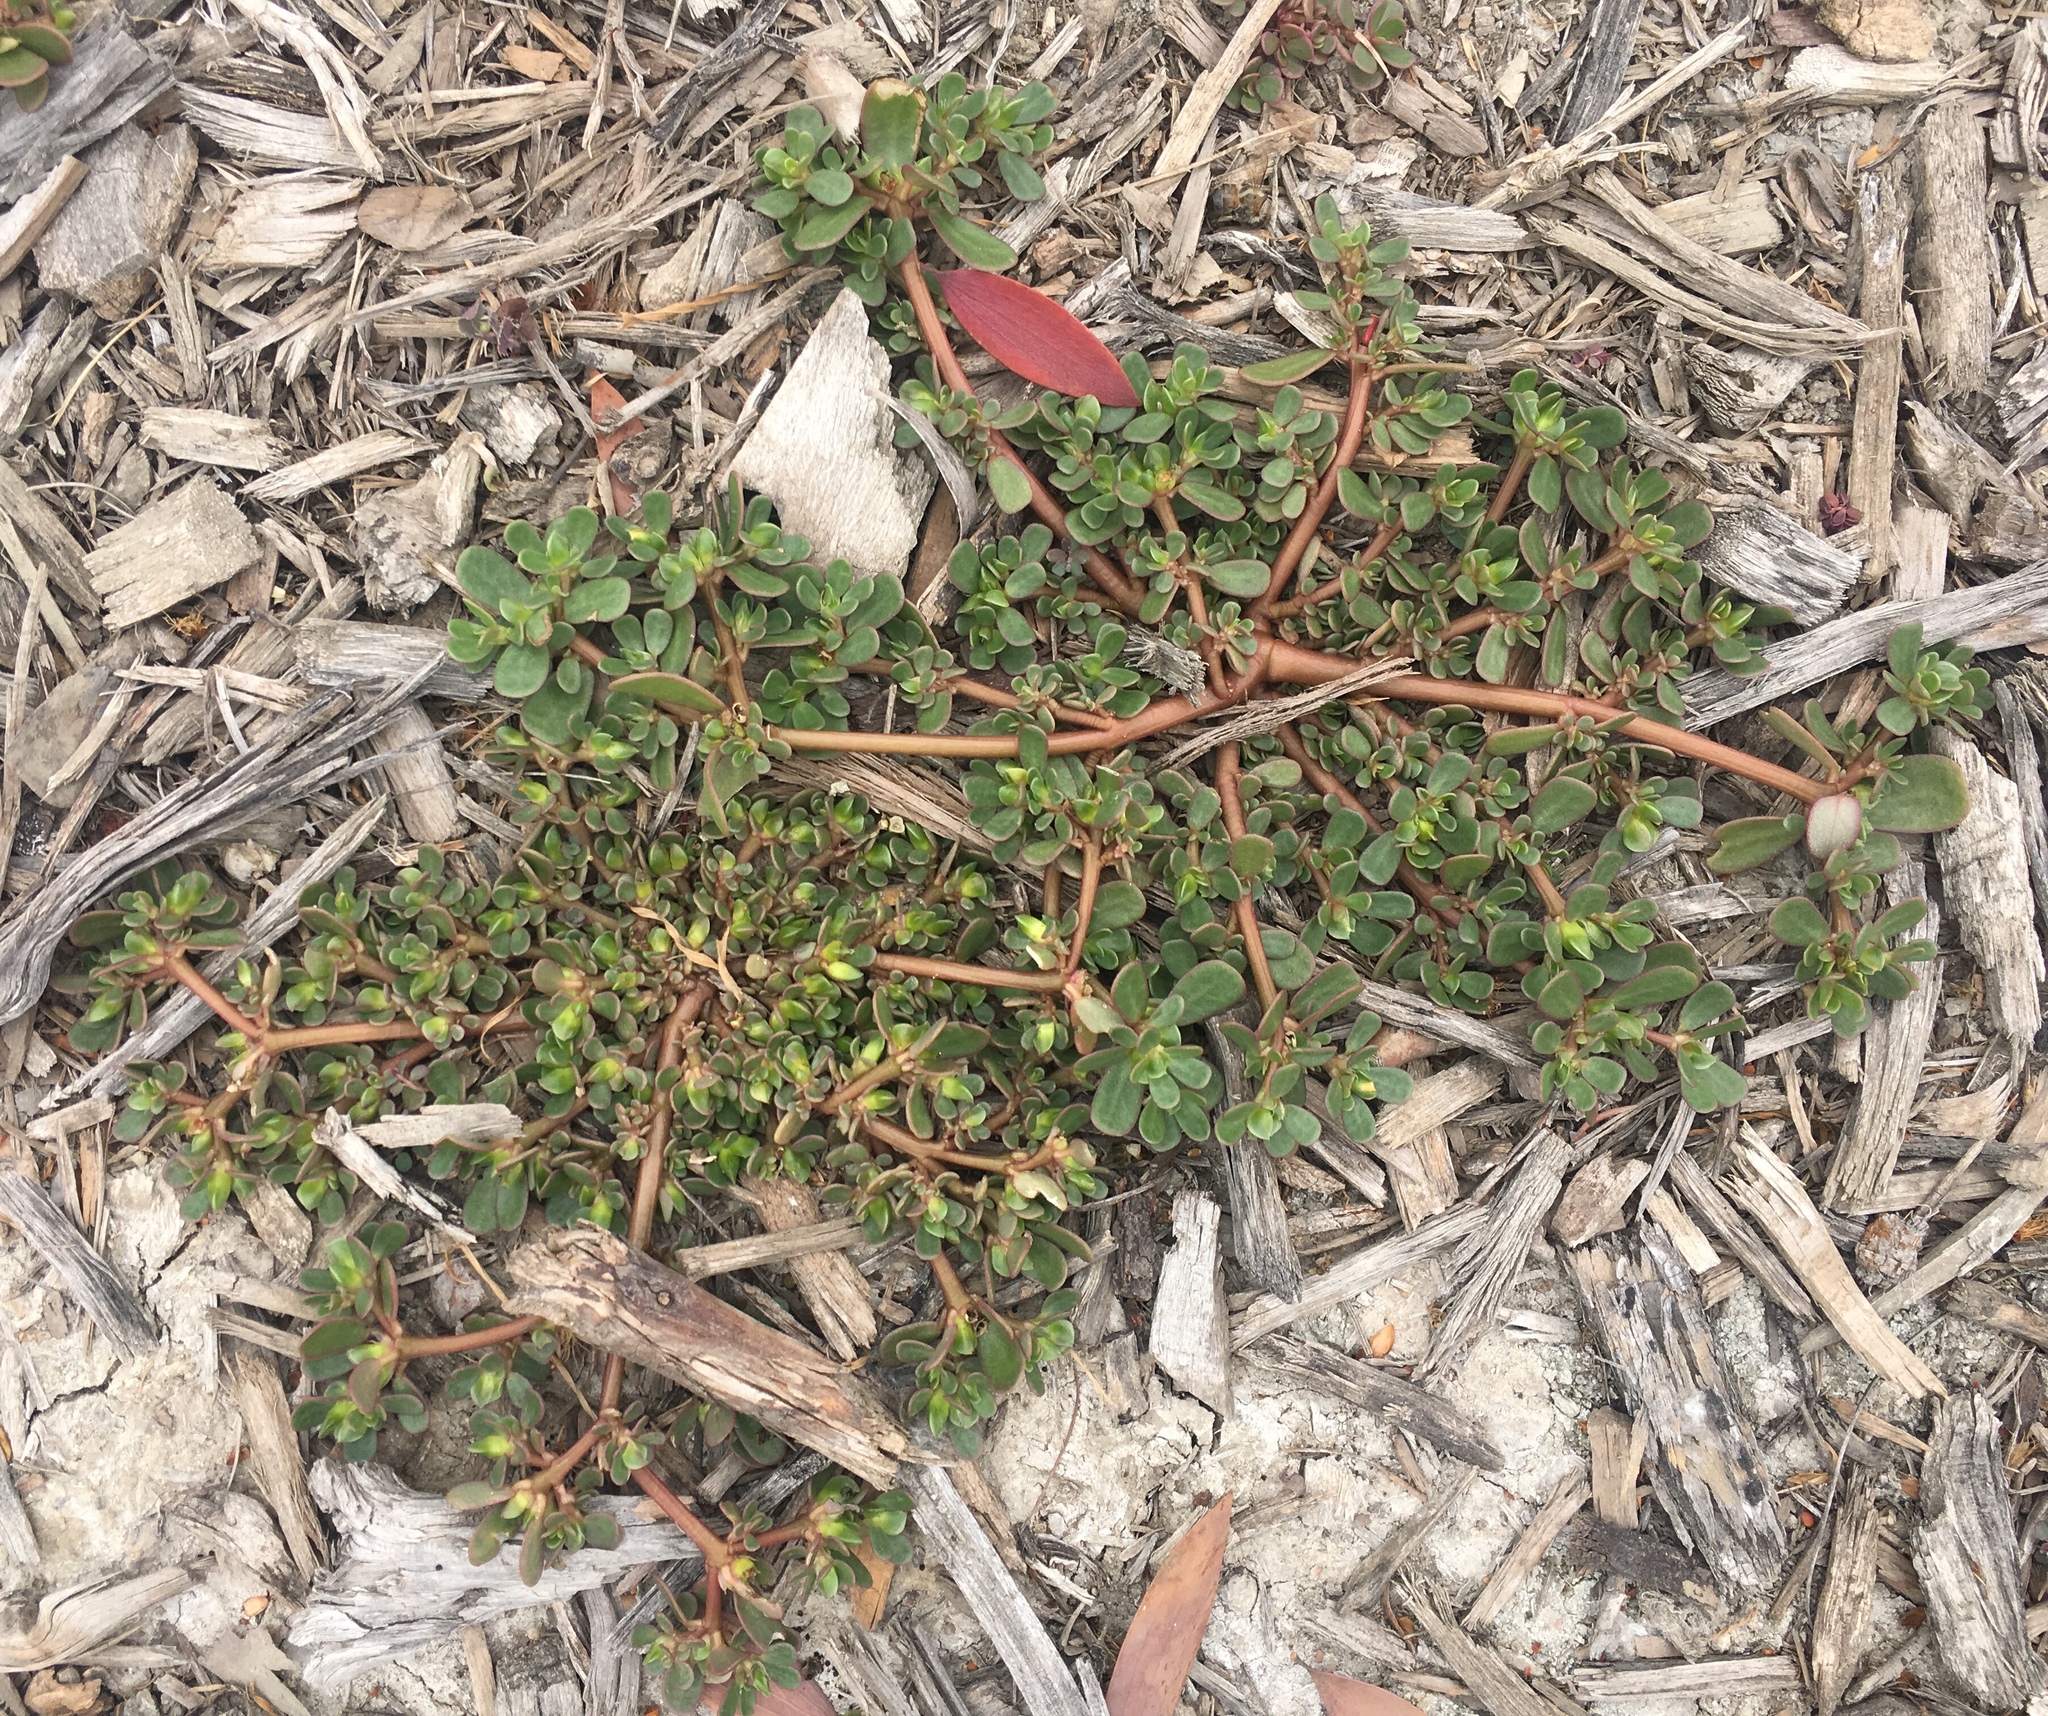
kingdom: Plantae
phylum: Tracheophyta
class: Magnoliopsida
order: Caryophyllales
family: Portulacaceae
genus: Portulaca
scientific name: Portulaca oleracea
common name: Common purslane
